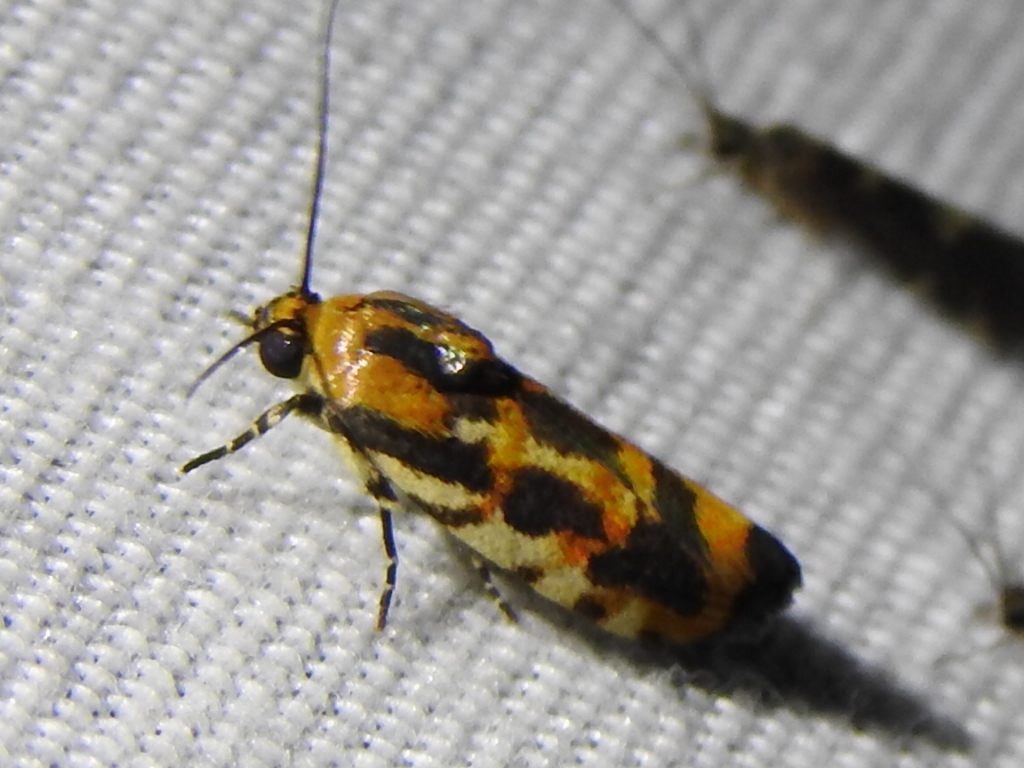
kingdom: Animalia
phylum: Arthropoda
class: Insecta
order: Lepidoptera
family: Noctuidae
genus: Acontia
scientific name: Acontia leo
